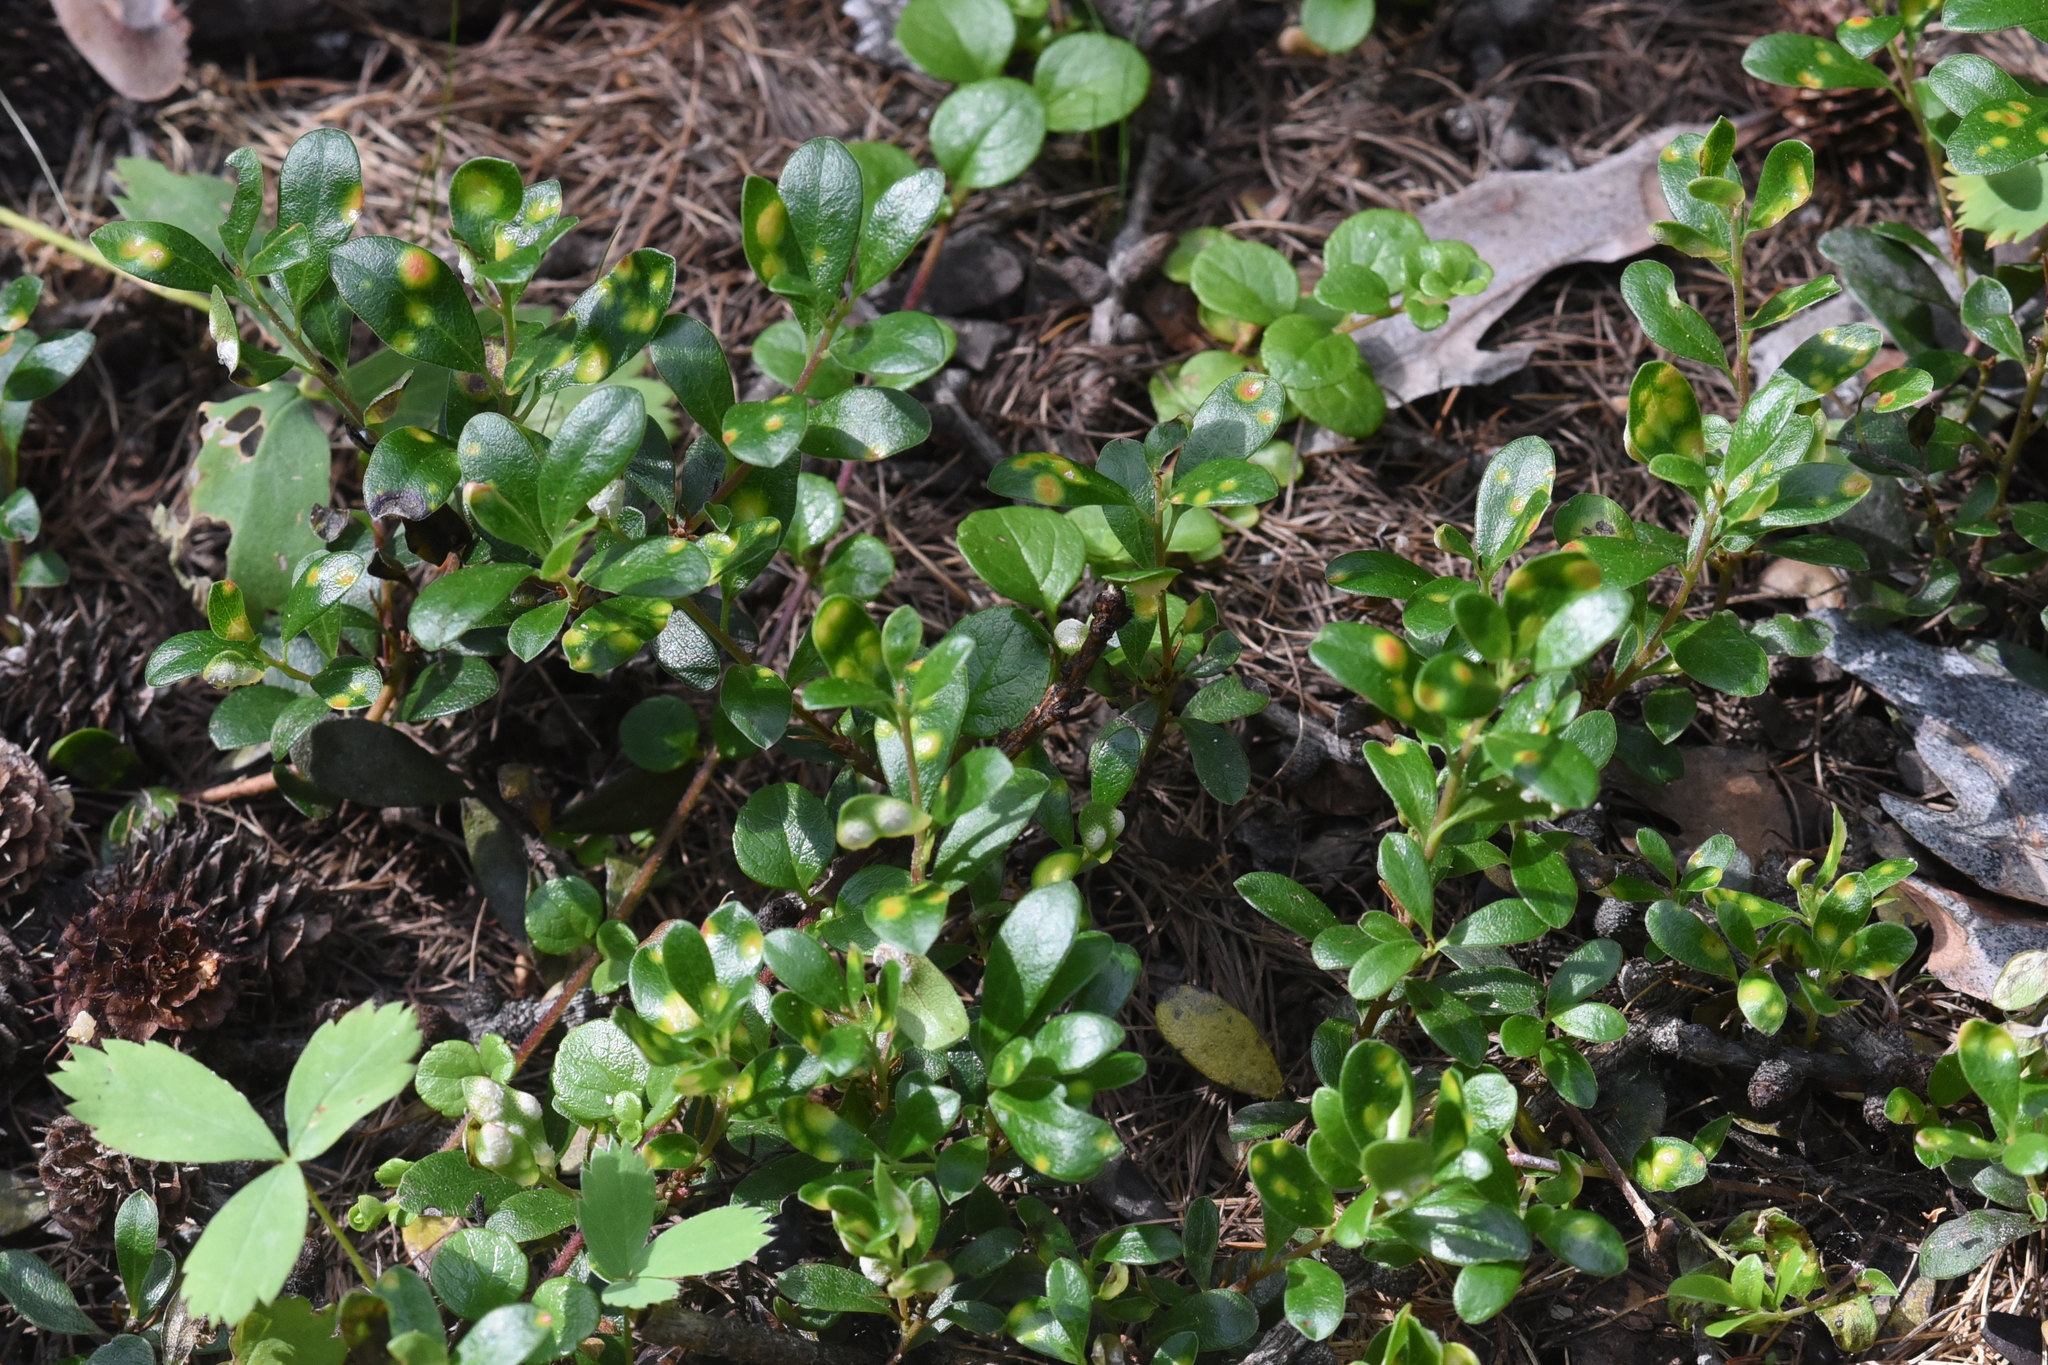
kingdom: Plantae
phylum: Tracheophyta
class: Magnoliopsida
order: Ericales
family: Ericaceae
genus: Arctostaphylos
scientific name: Arctostaphylos uva-ursi
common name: Bearberry
